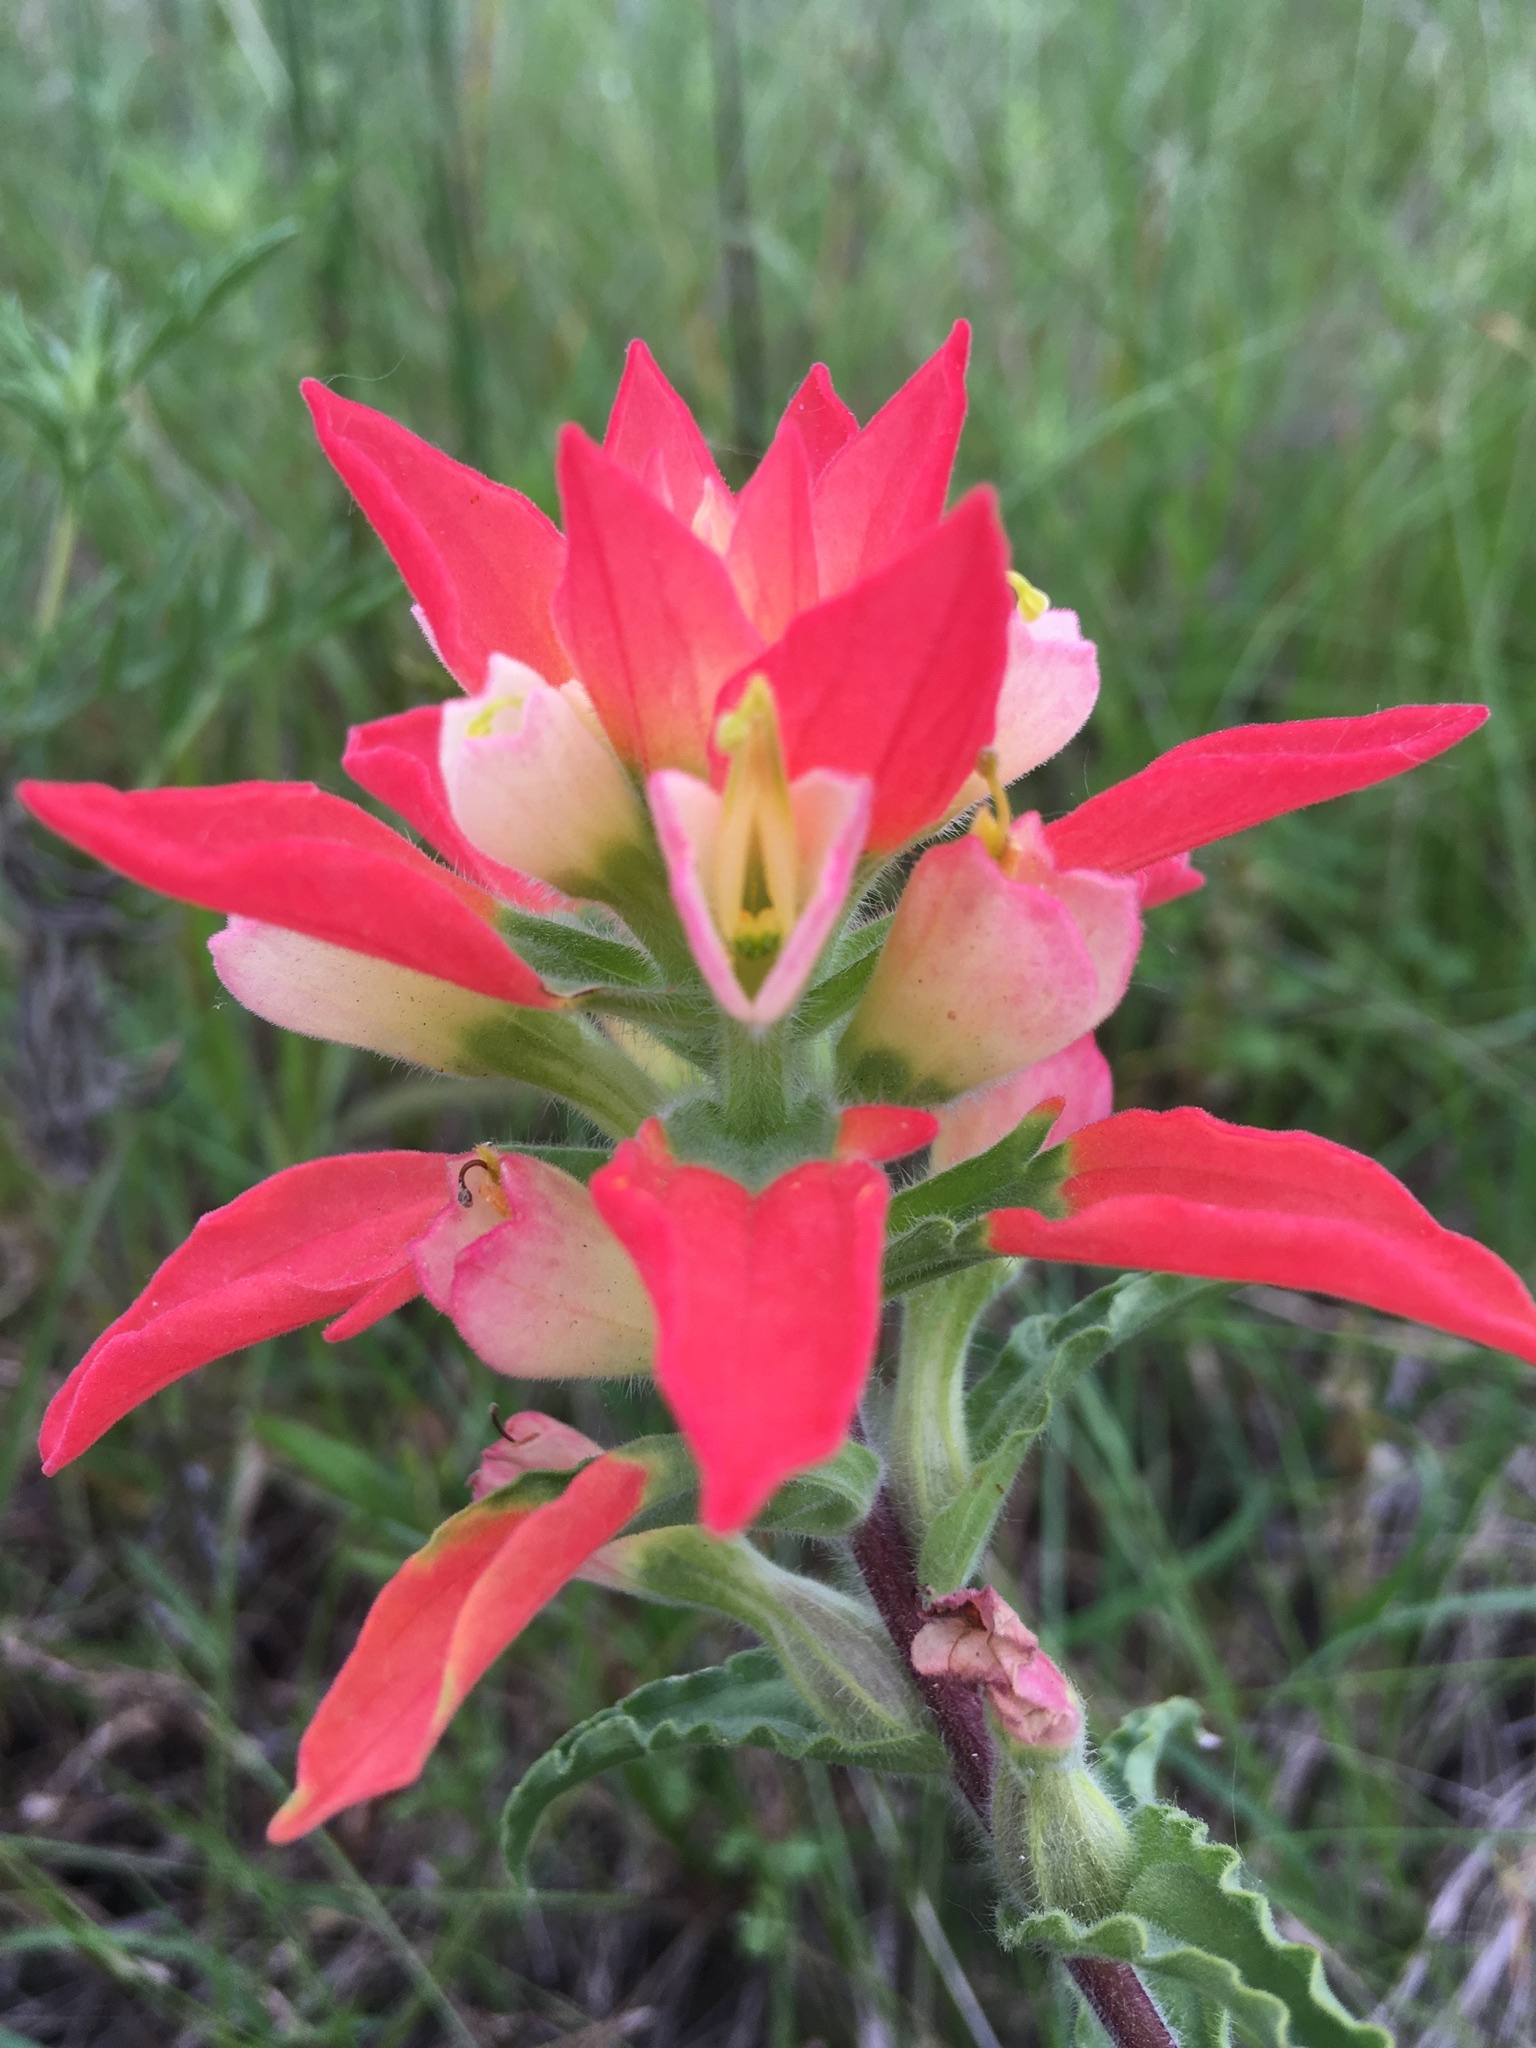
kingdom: Plantae
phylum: Tracheophyta
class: Magnoliopsida
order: Lamiales
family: Orobanchaceae
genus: Castilleja
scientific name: Castilleja indivisa
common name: Texas paintbrush
